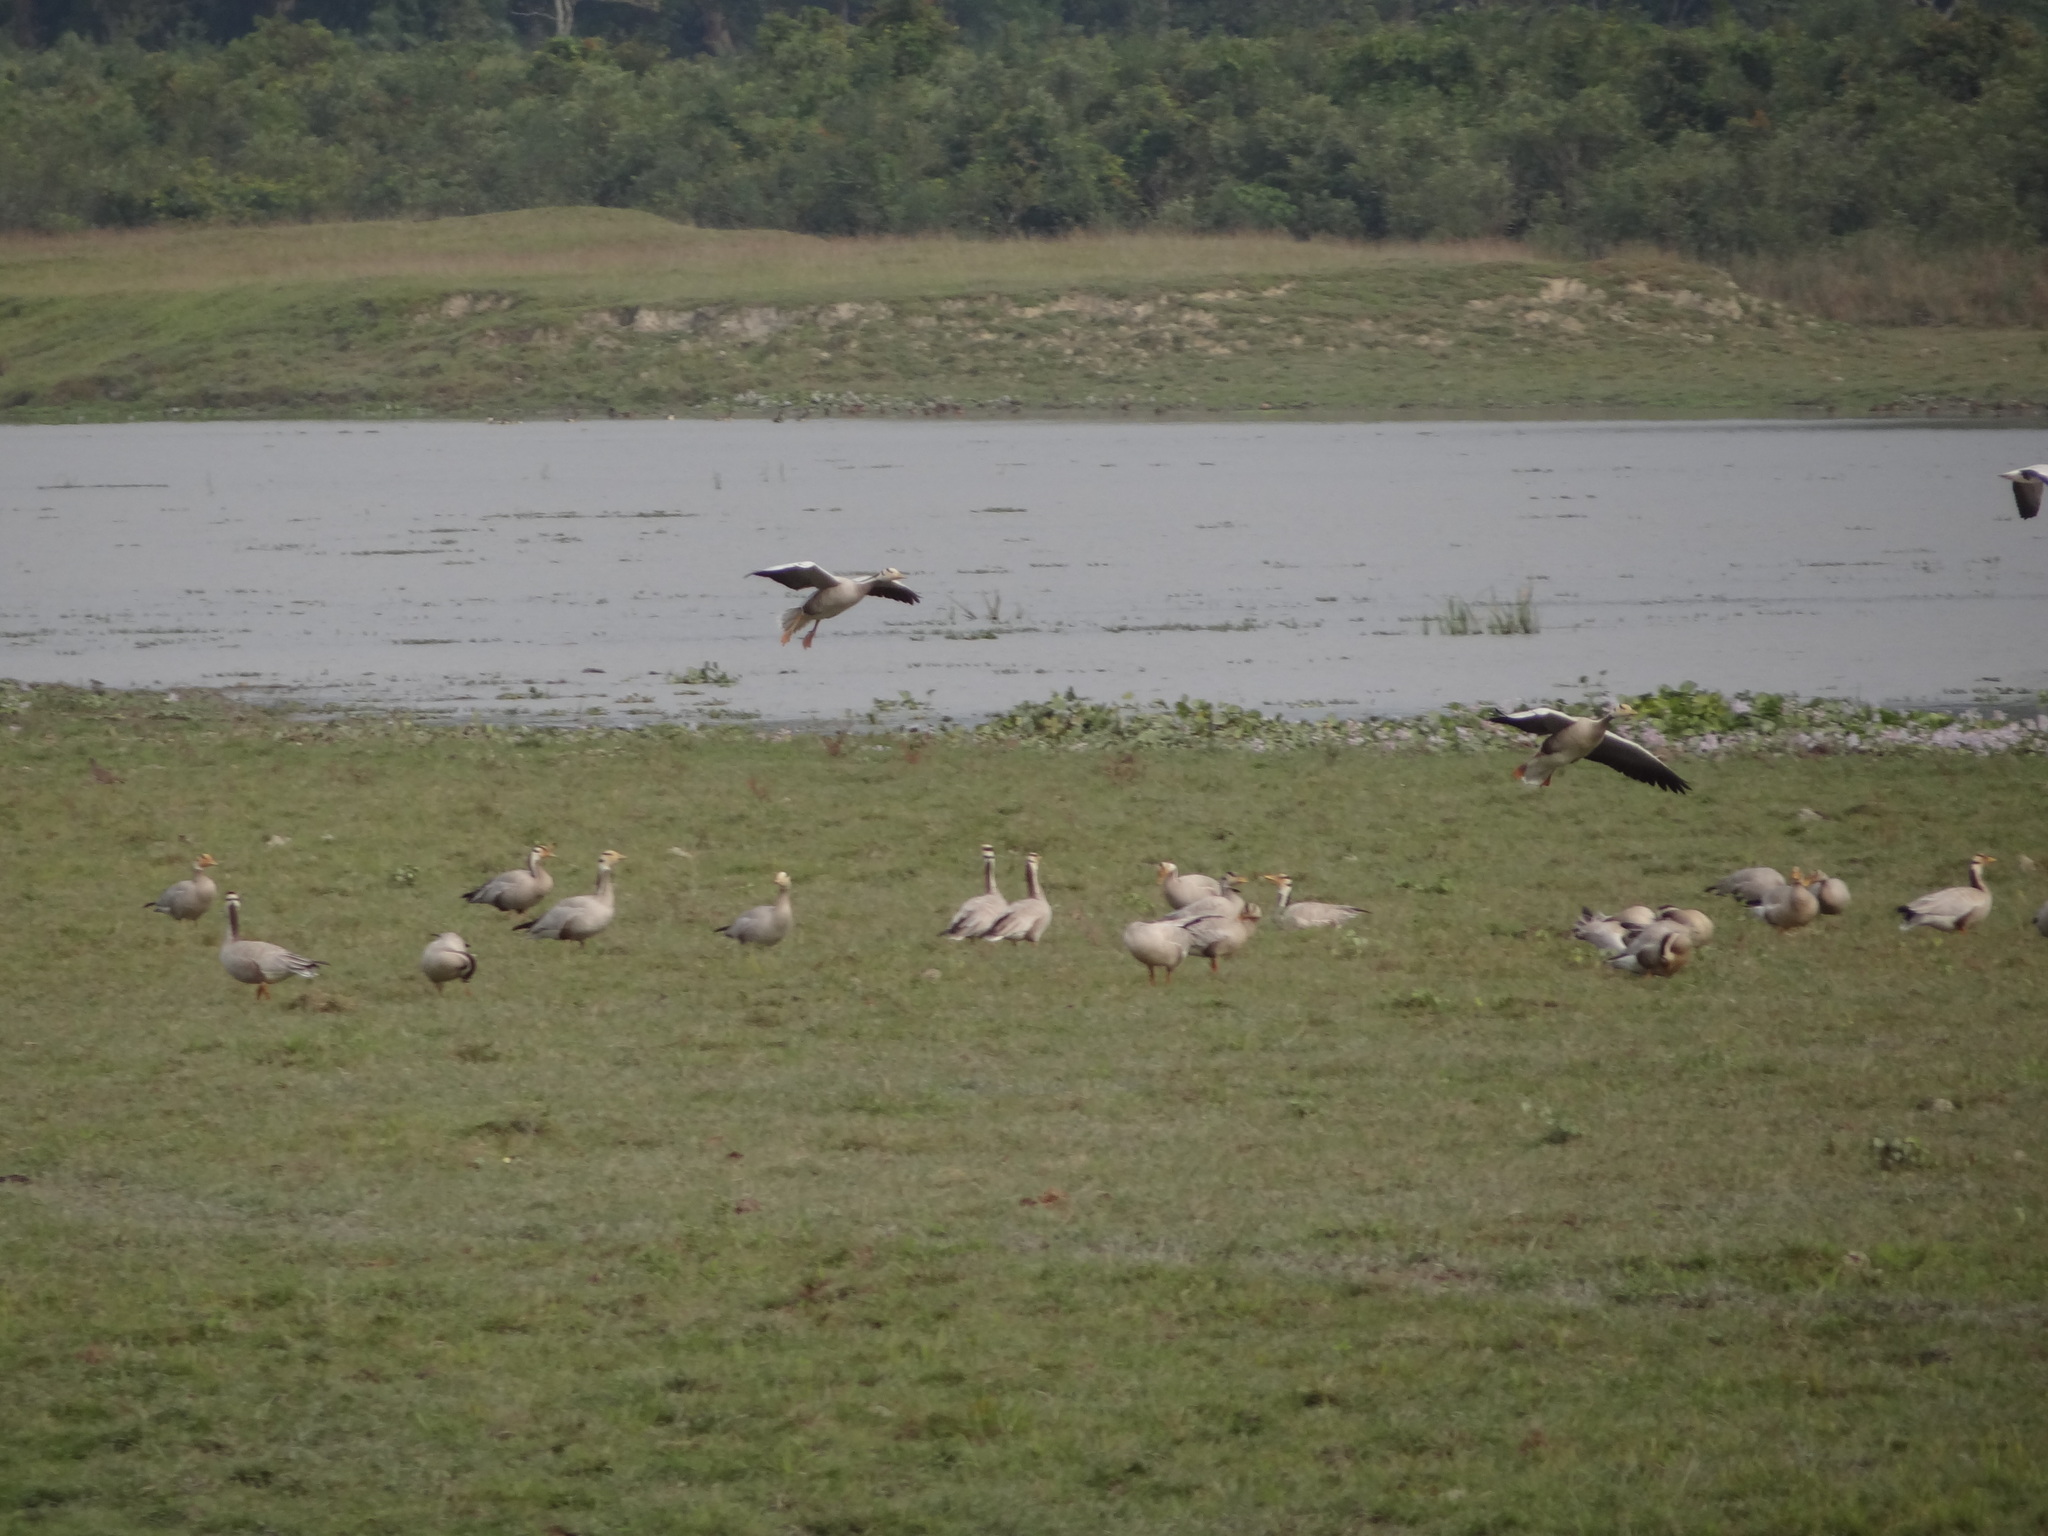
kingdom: Animalia
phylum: Chordata
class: Aves
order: Anseriformes
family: Anatidae
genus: Anser
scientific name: Anser indicus
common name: Bar-headed goose
